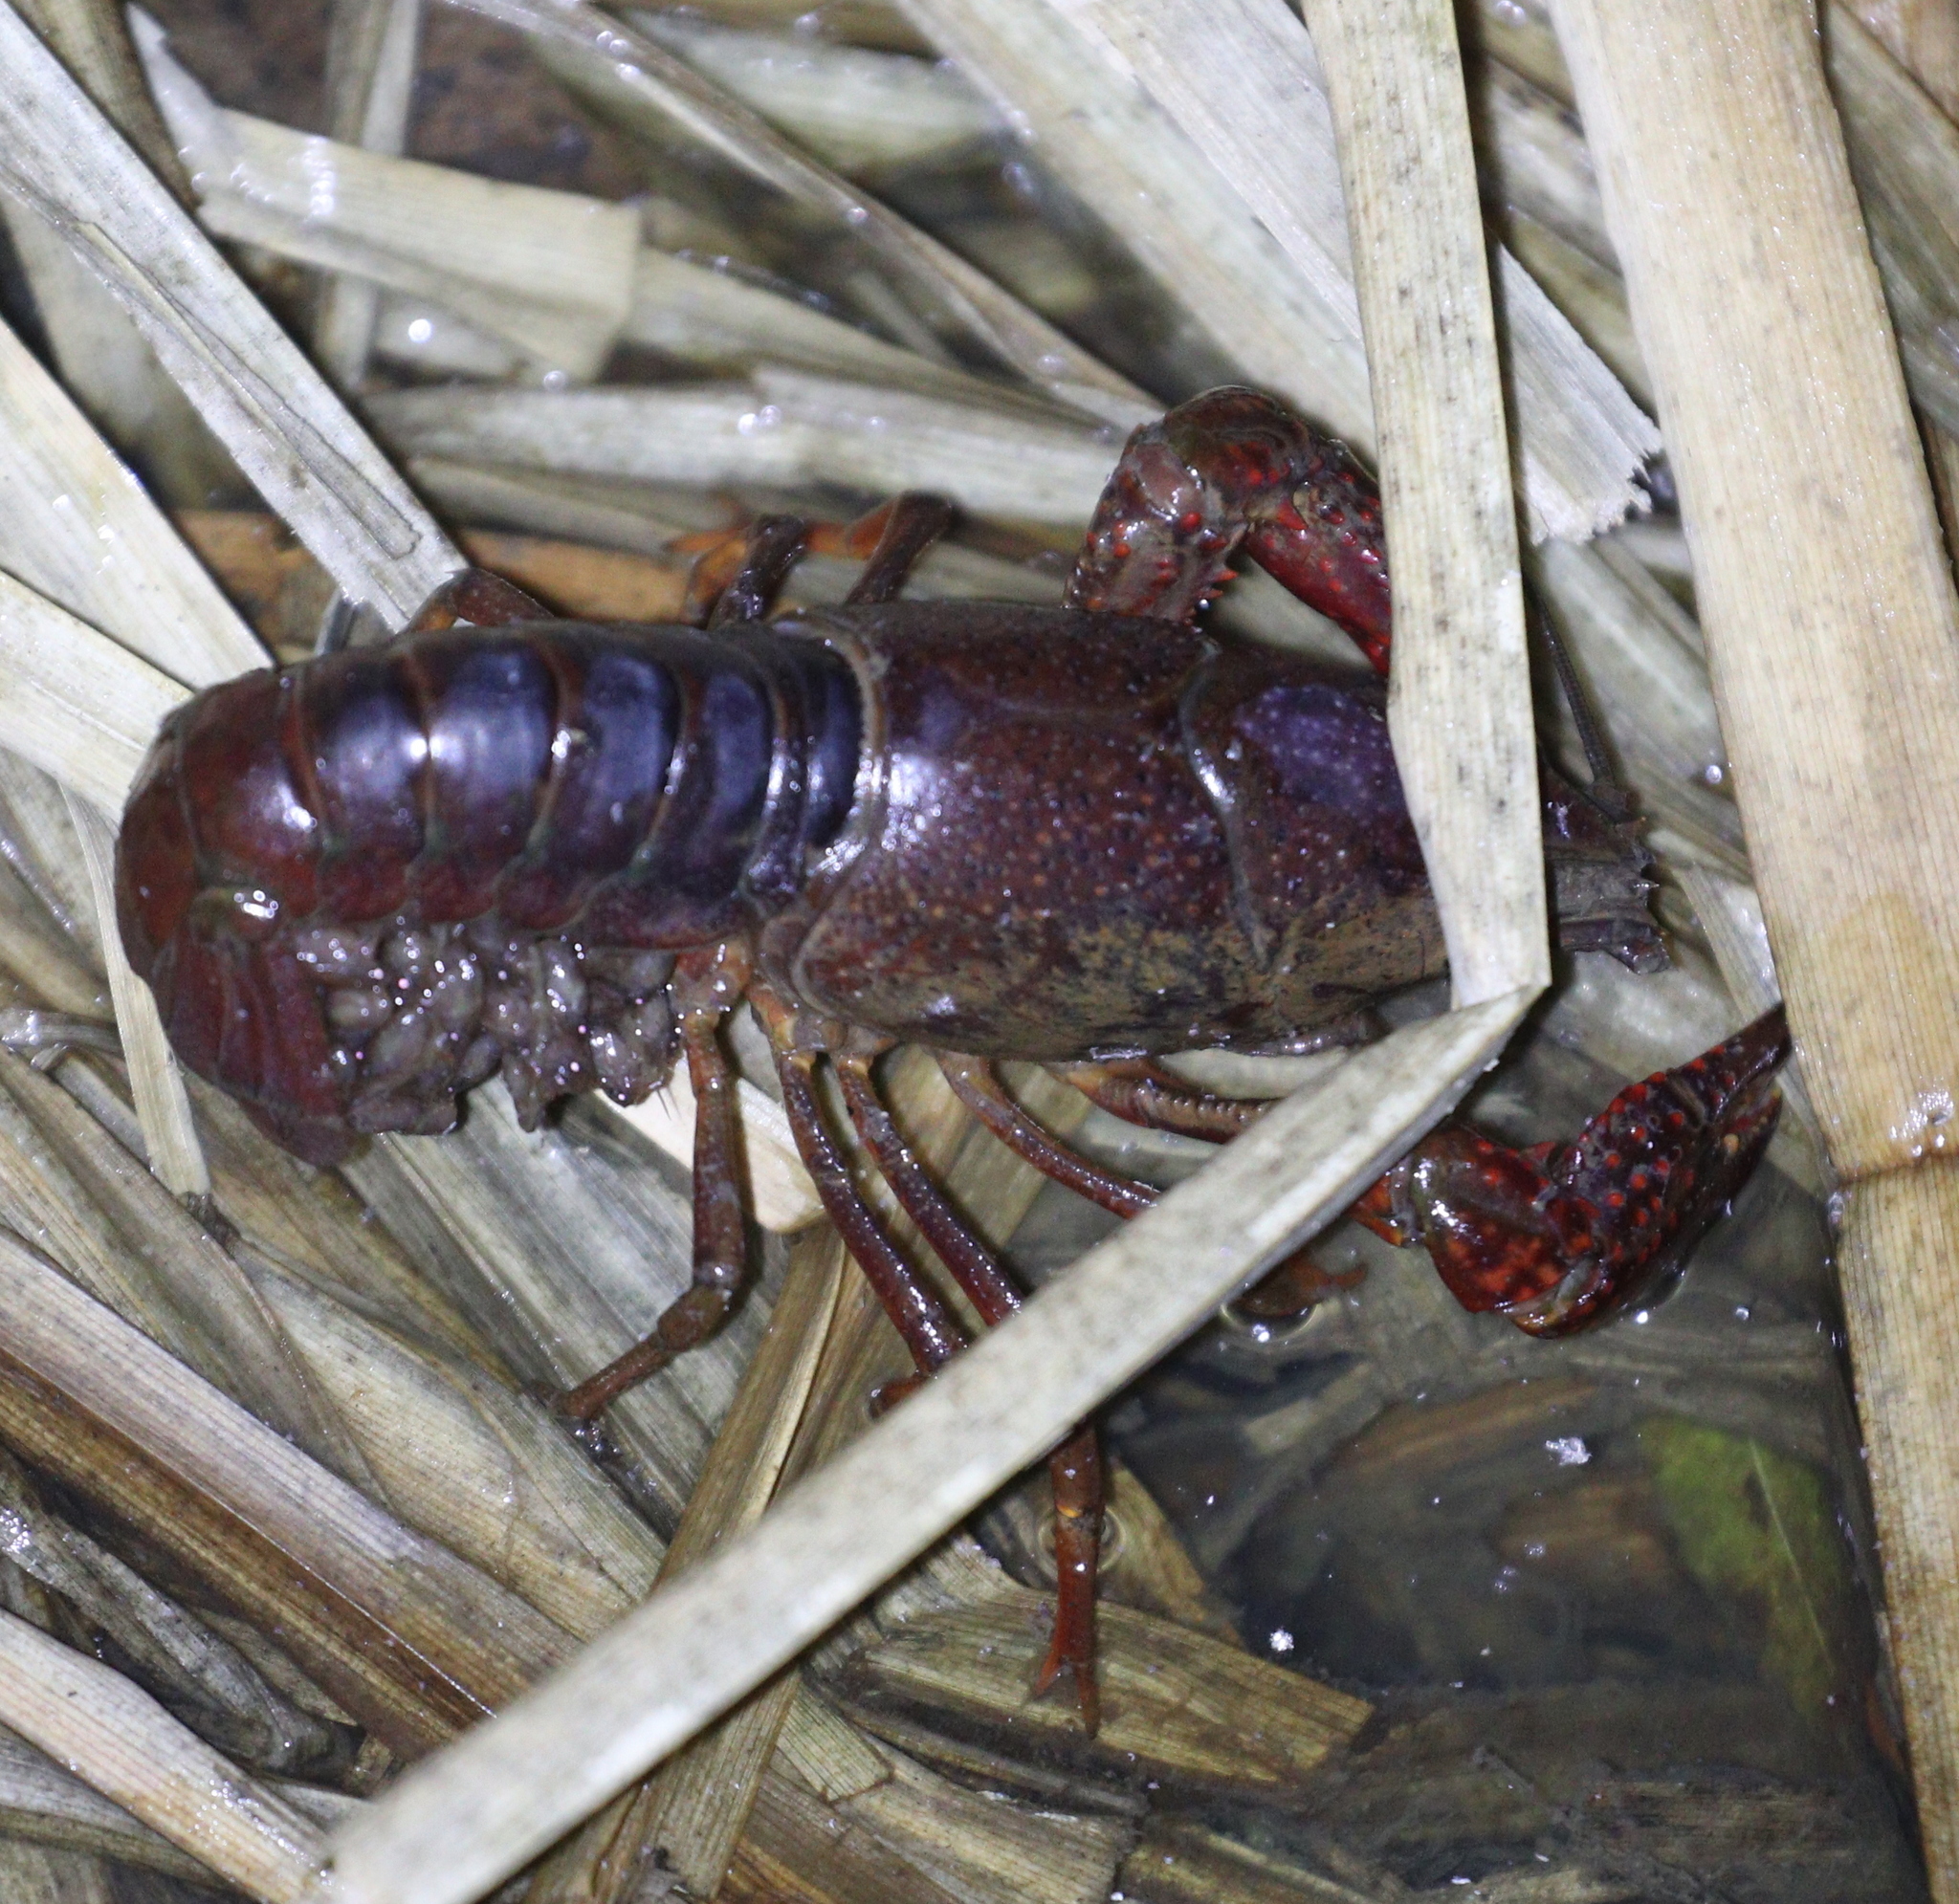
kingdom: Animalia
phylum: Arthropoda
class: Malacostraca
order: Decapoda
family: Cambaridae
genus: Procambarus
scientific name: Procambarus clarkii
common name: Red swamp crayfish
